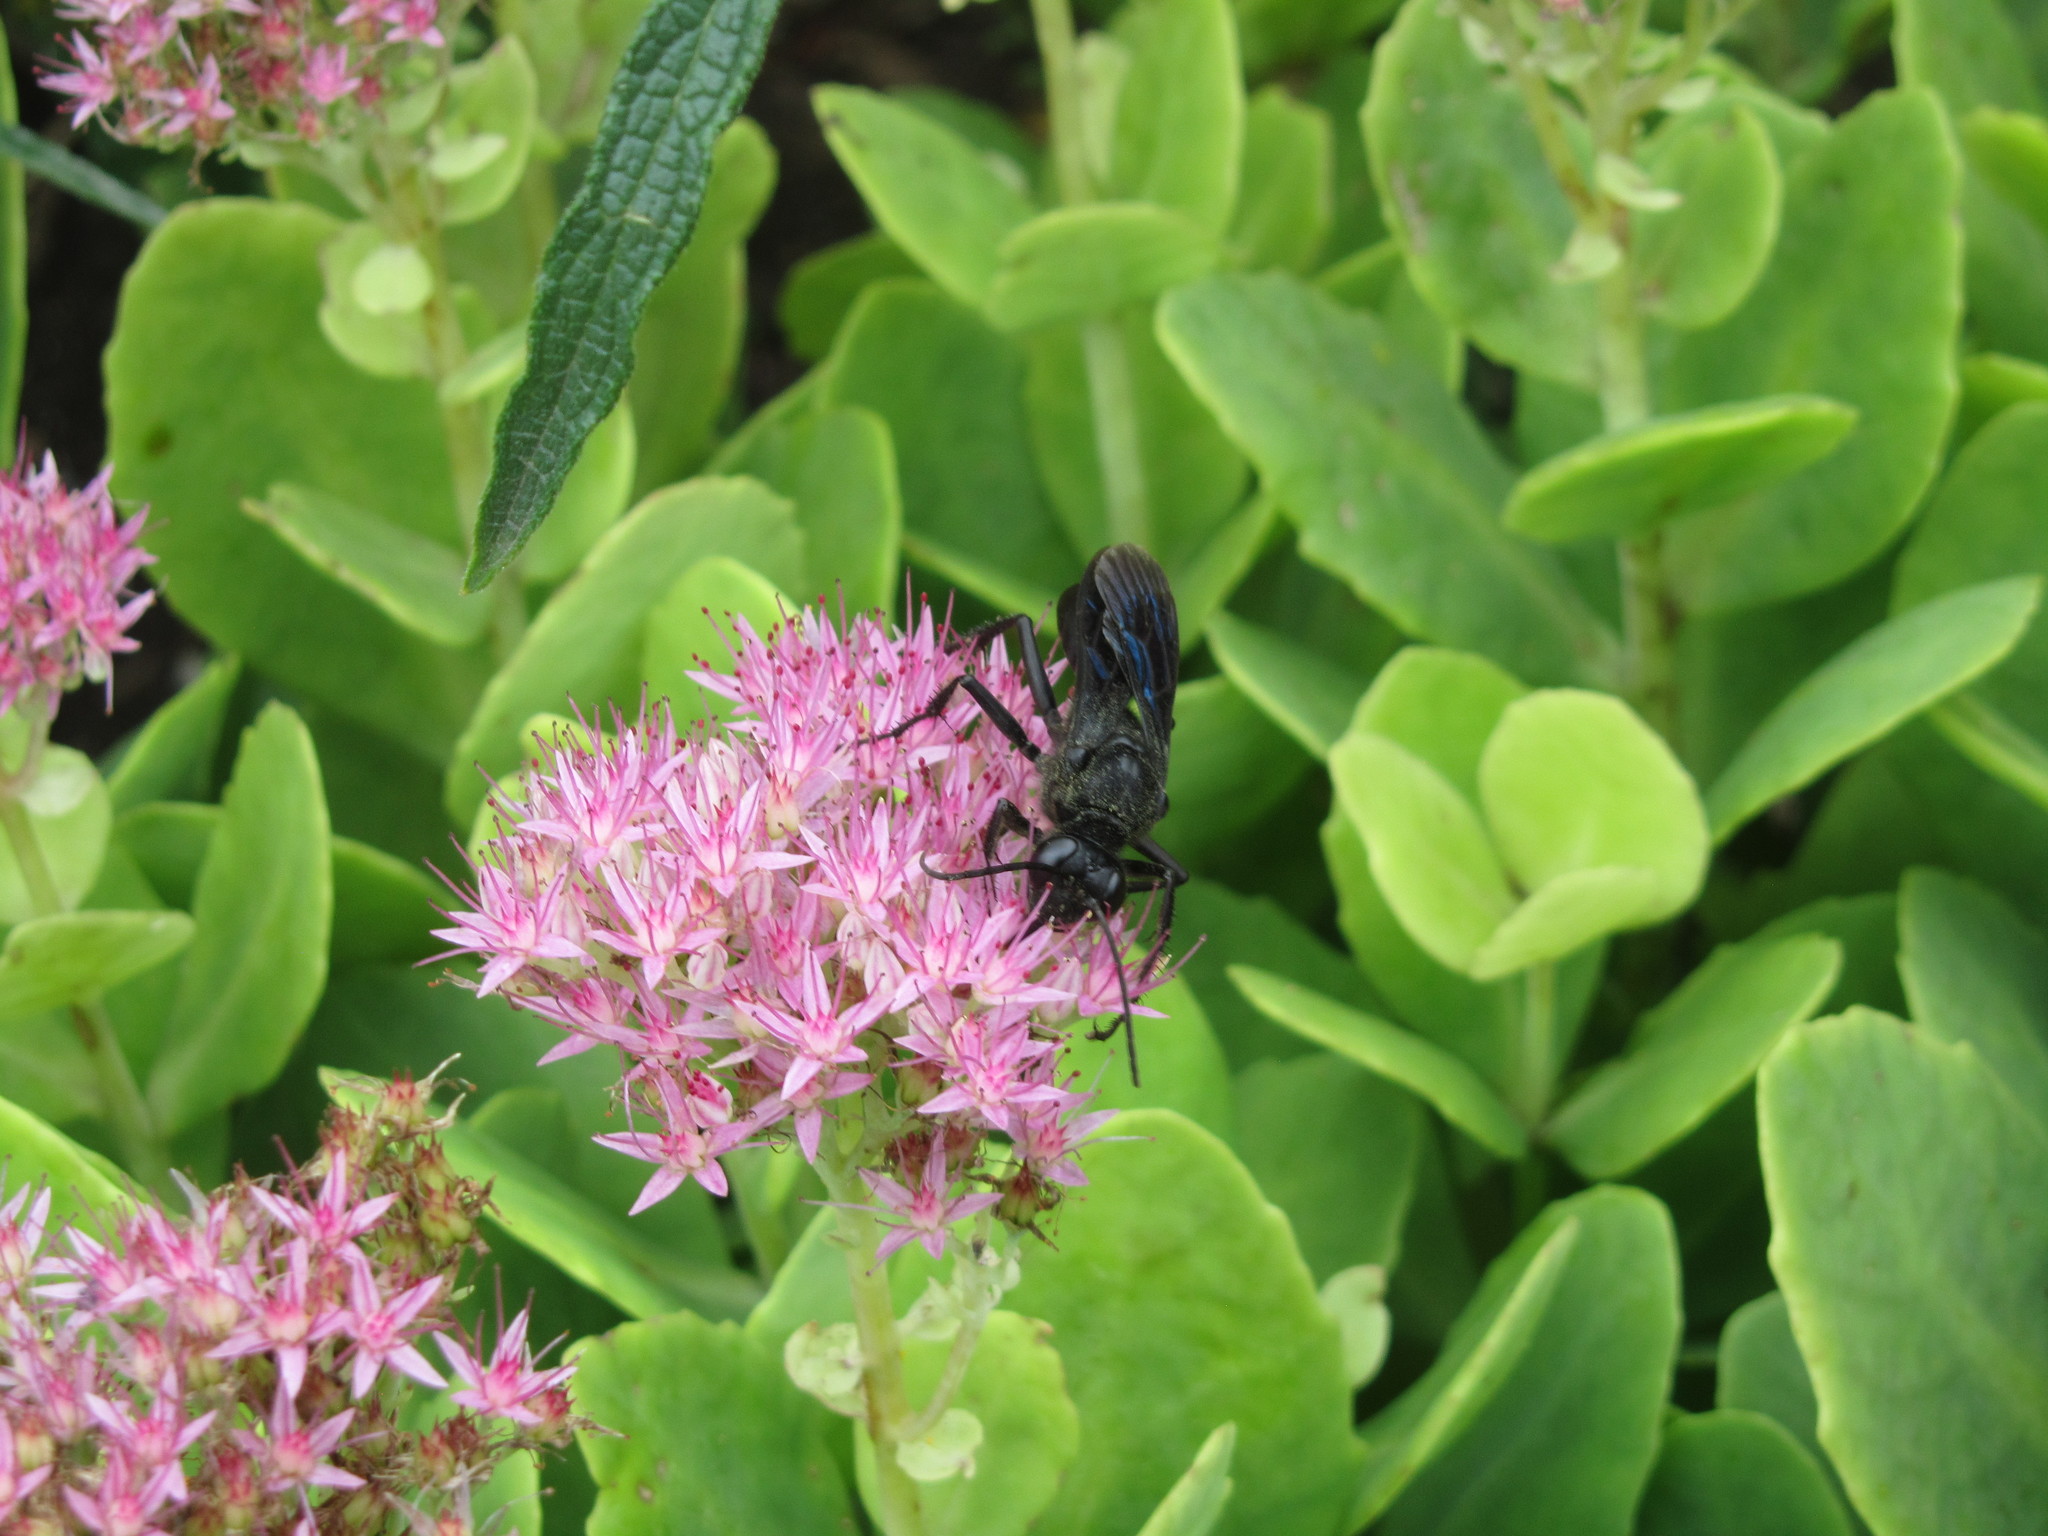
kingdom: Animalia
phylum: Arthropoda
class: Insecta
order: Hymenoptera
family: Sphecidae
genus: Sphex
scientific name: Sphex pensylvanicus
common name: Great black digger wasp
